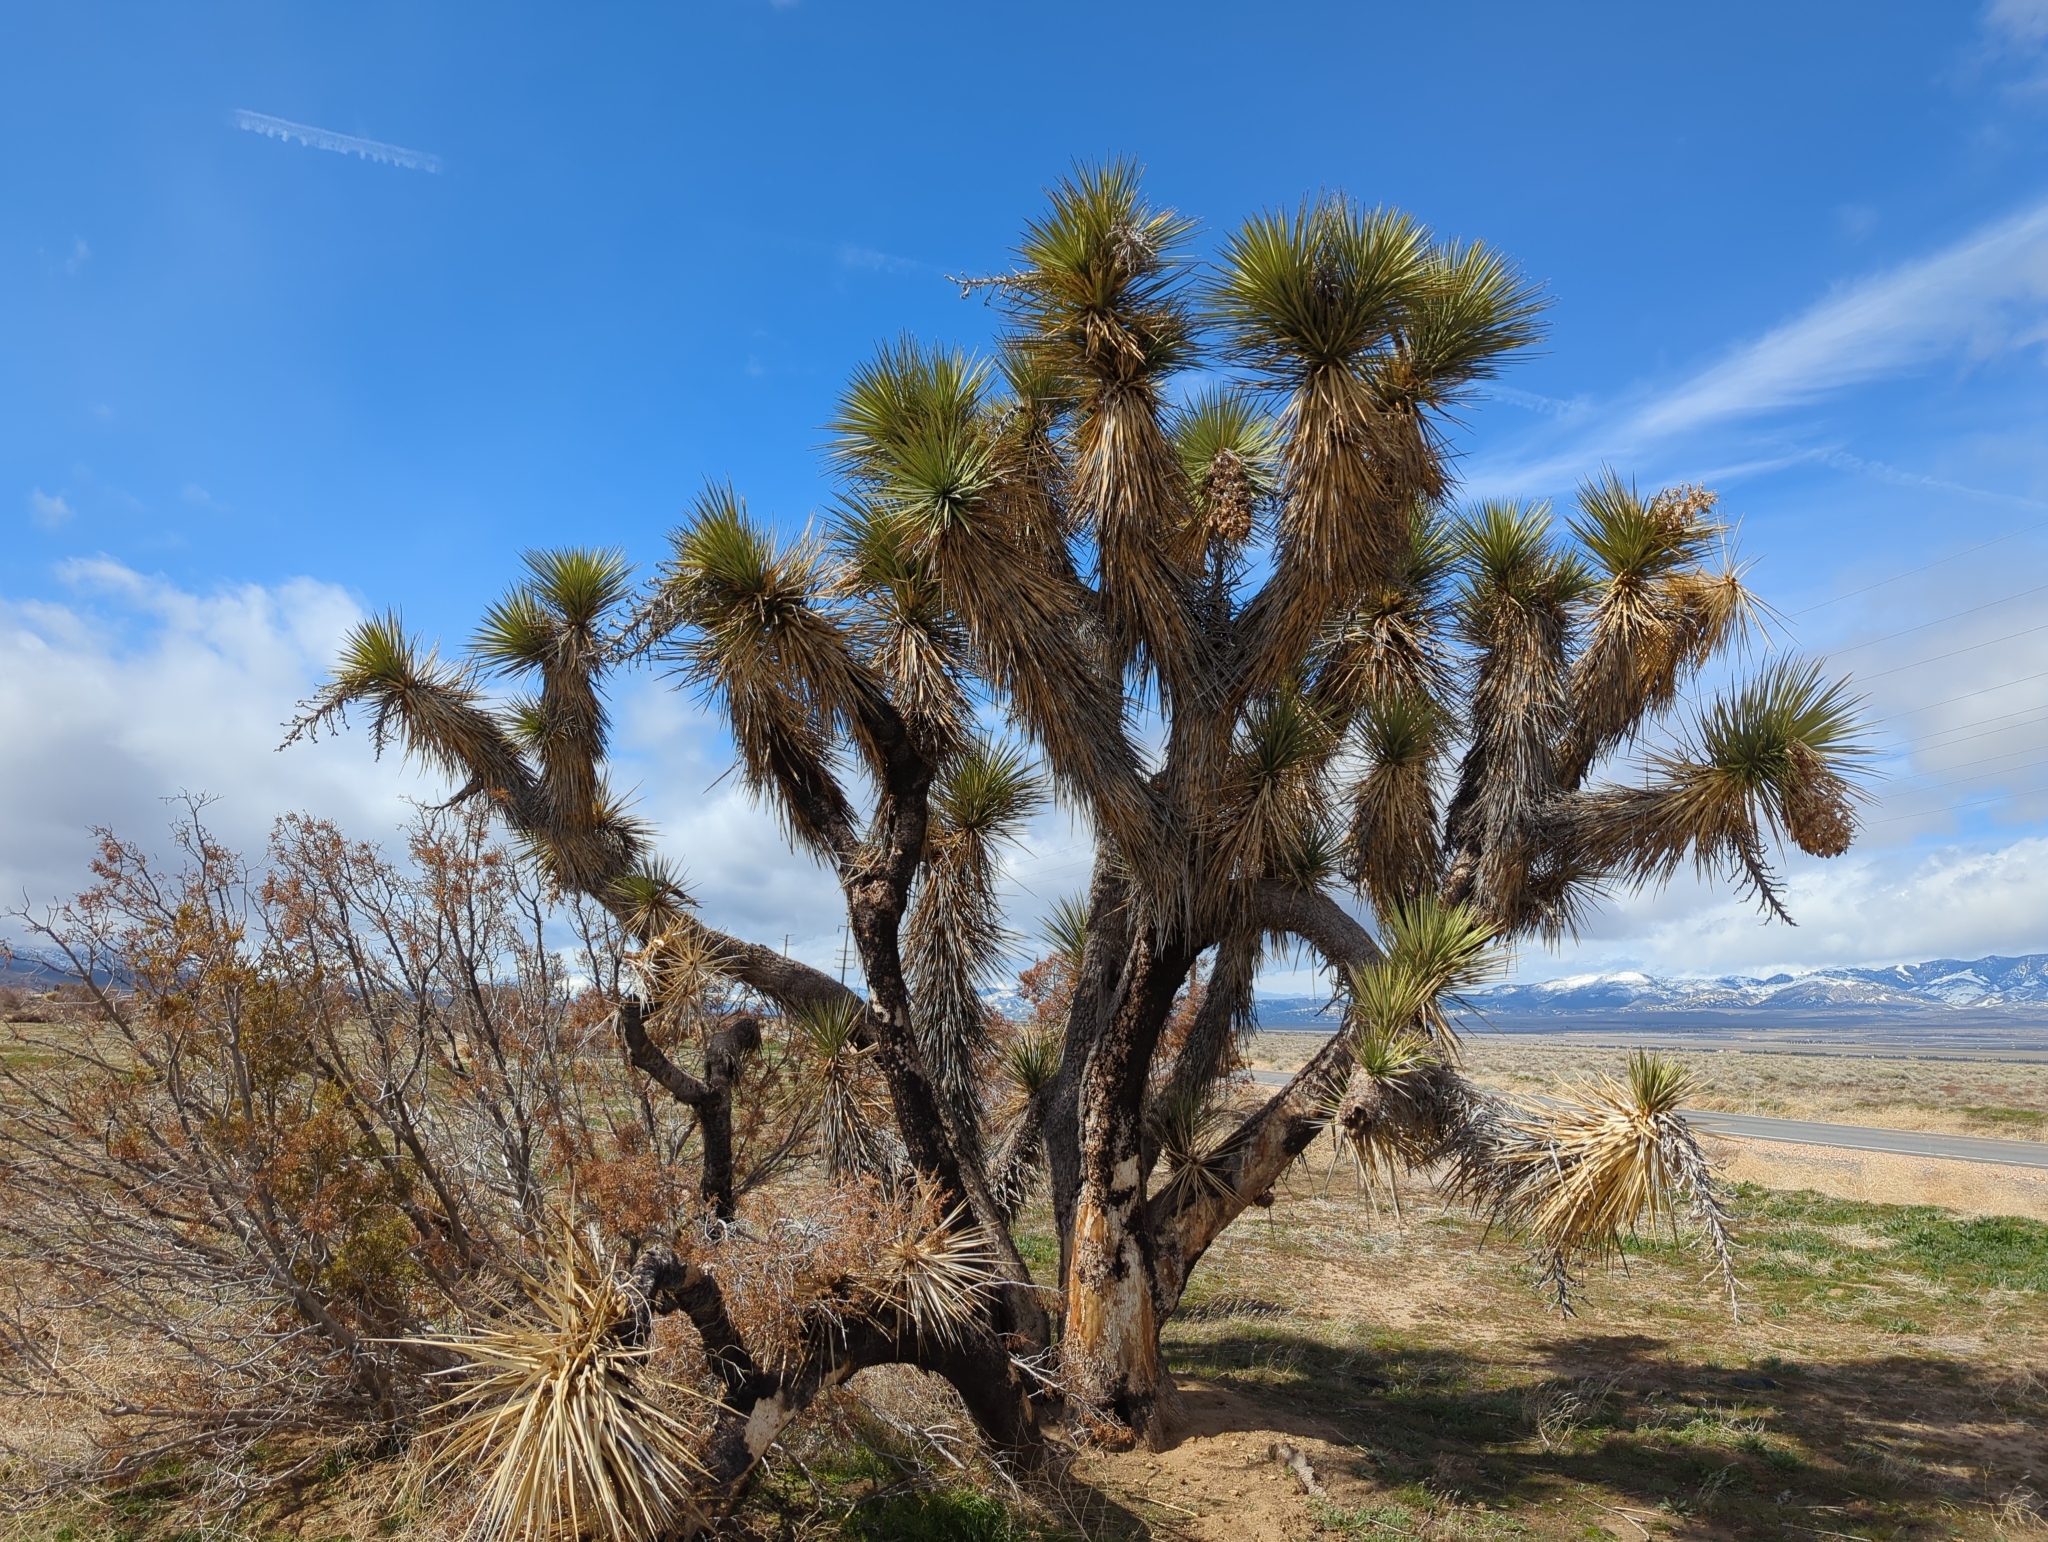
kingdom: Plantae
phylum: Tracheophyta
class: Liliopsida
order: Asparagales
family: Asparagaceae
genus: Yucca
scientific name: Yucca brevifolia
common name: Joshua tree
